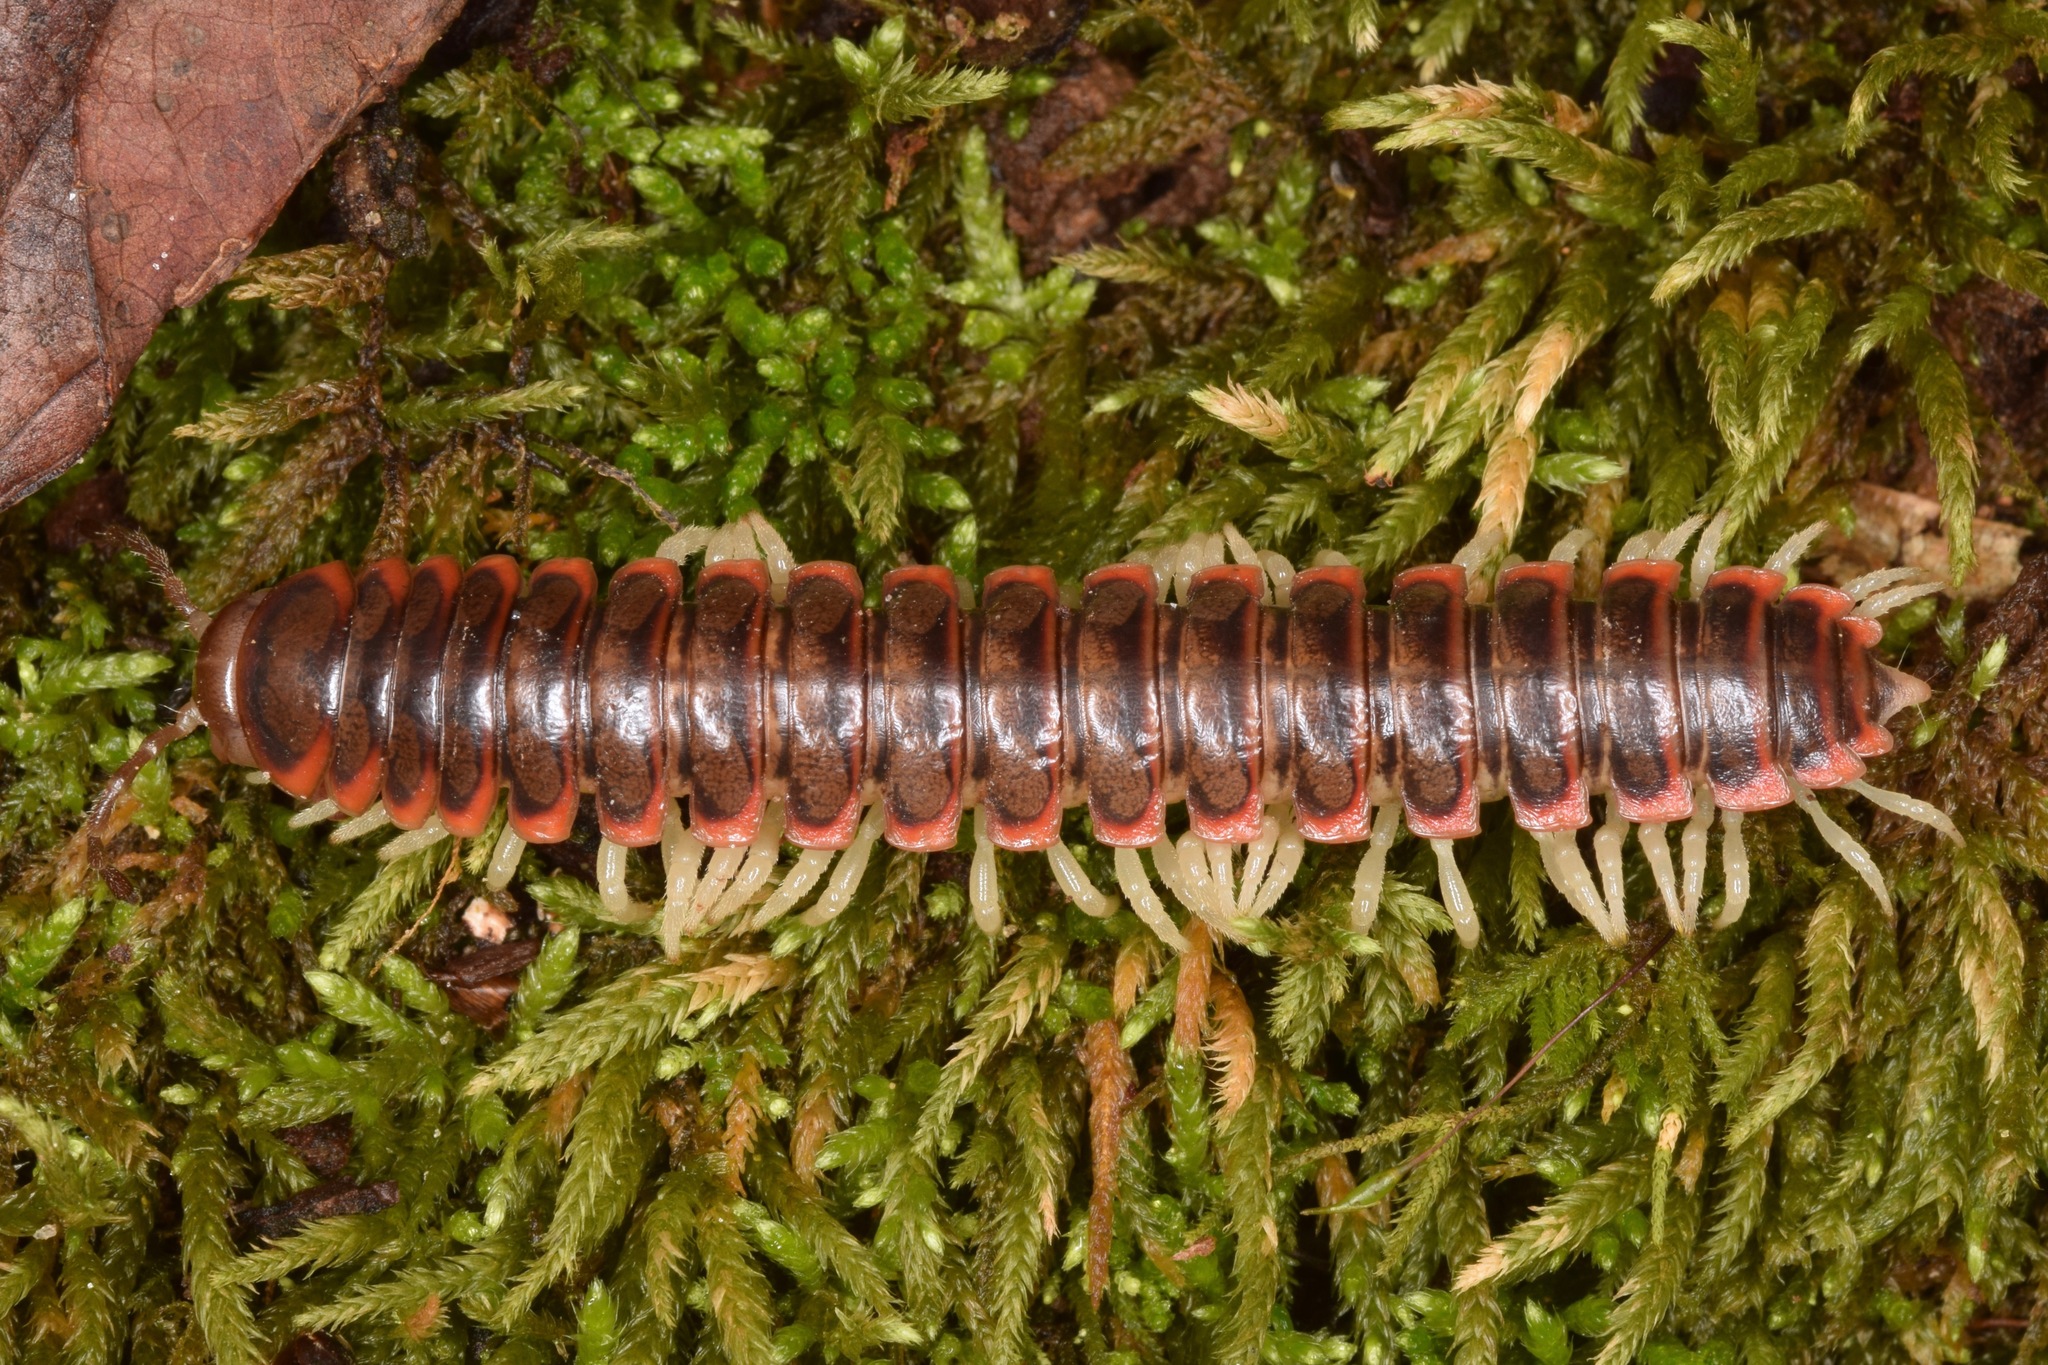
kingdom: Animalia
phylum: Arthropoda
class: Diplopoda
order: Polydesmida
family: Xystodesmidae
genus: Dicellarius
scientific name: Dicellarius atlanta
